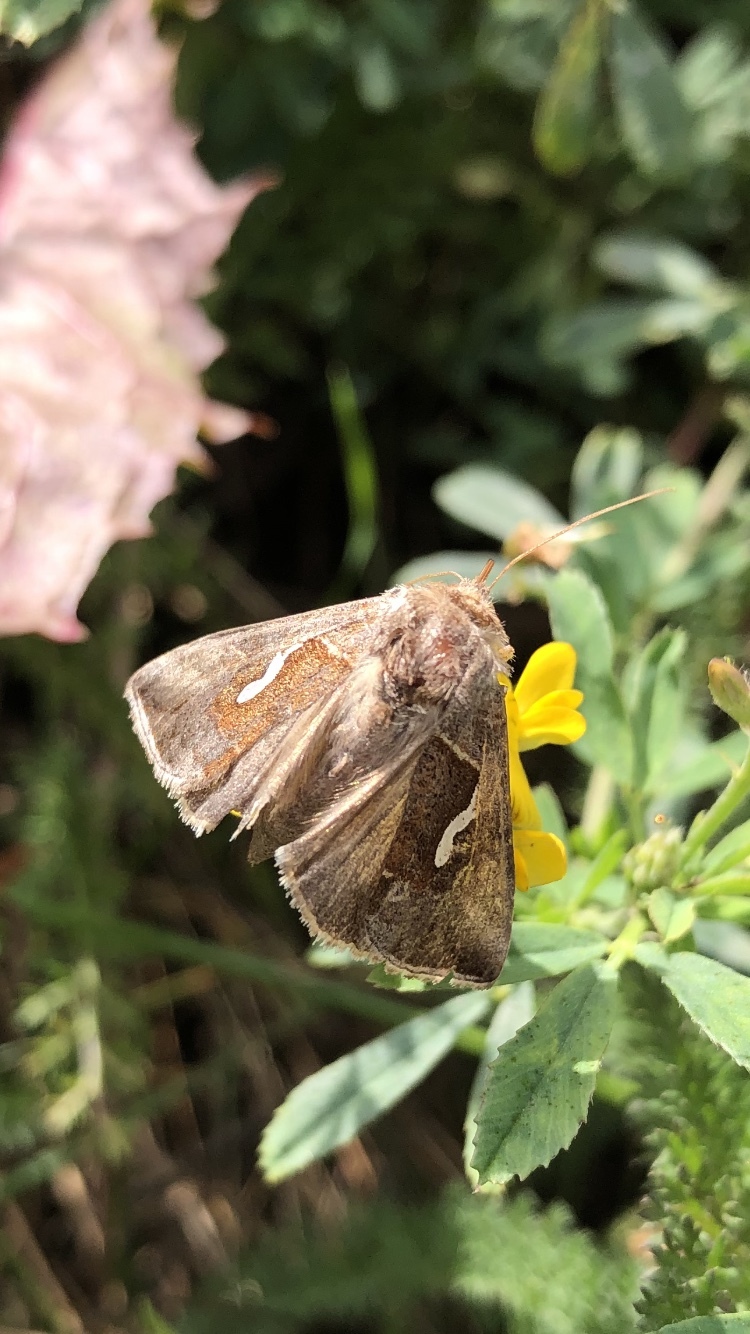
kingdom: Animalia
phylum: Arthropoda
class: Insecta
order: Lepidoptera
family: Noctuidae
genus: Macdunnoughia
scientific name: Macdunnoughia confusa
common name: Dewick's plusia
